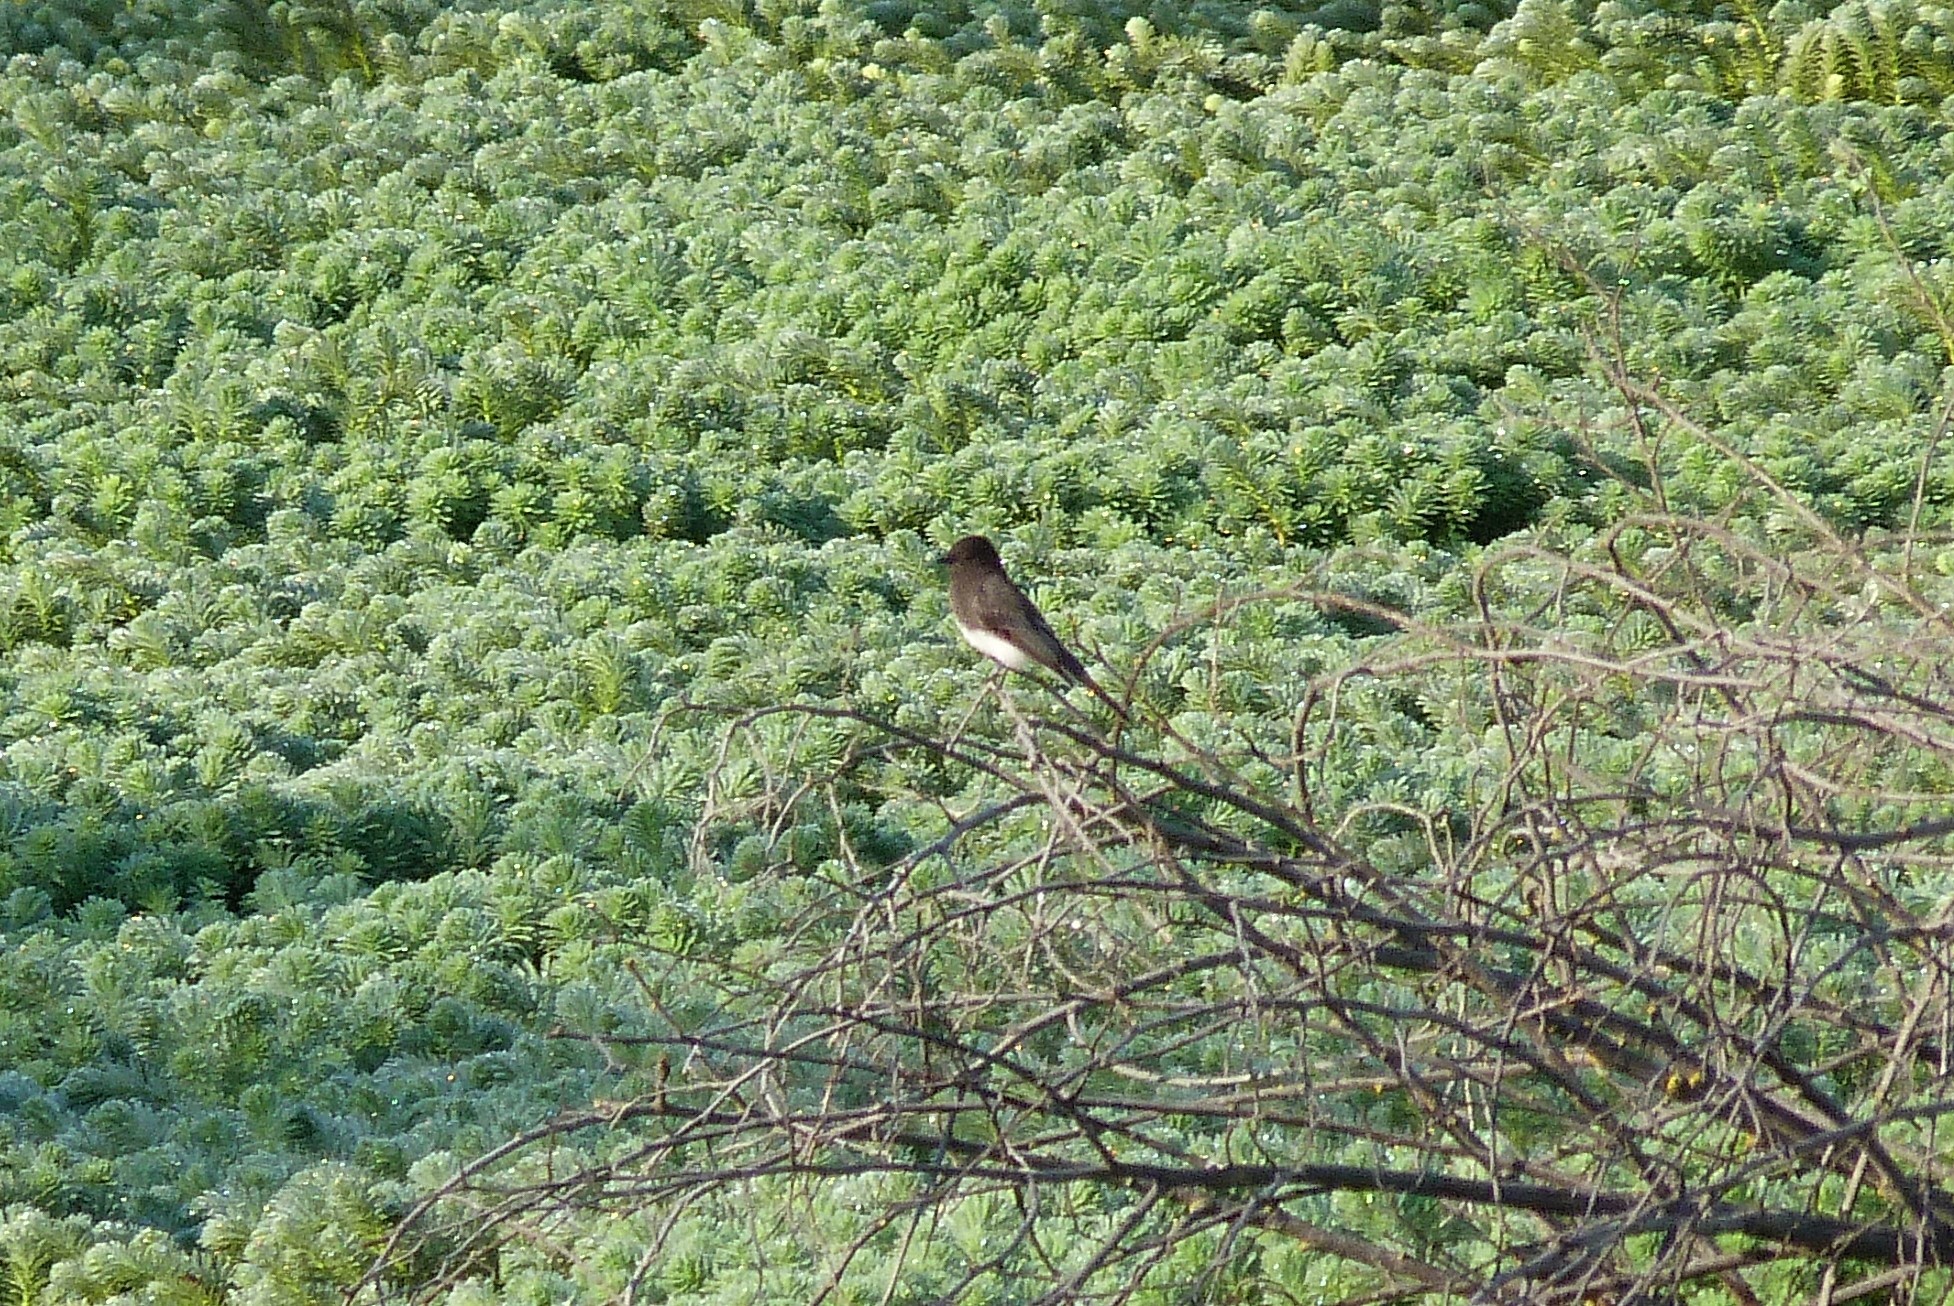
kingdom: Animalia
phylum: Chordata
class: Aves
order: Passeriformes
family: Tyrannidae
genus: Sayornis
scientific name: Sayornis nigricans
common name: Black phoebe
